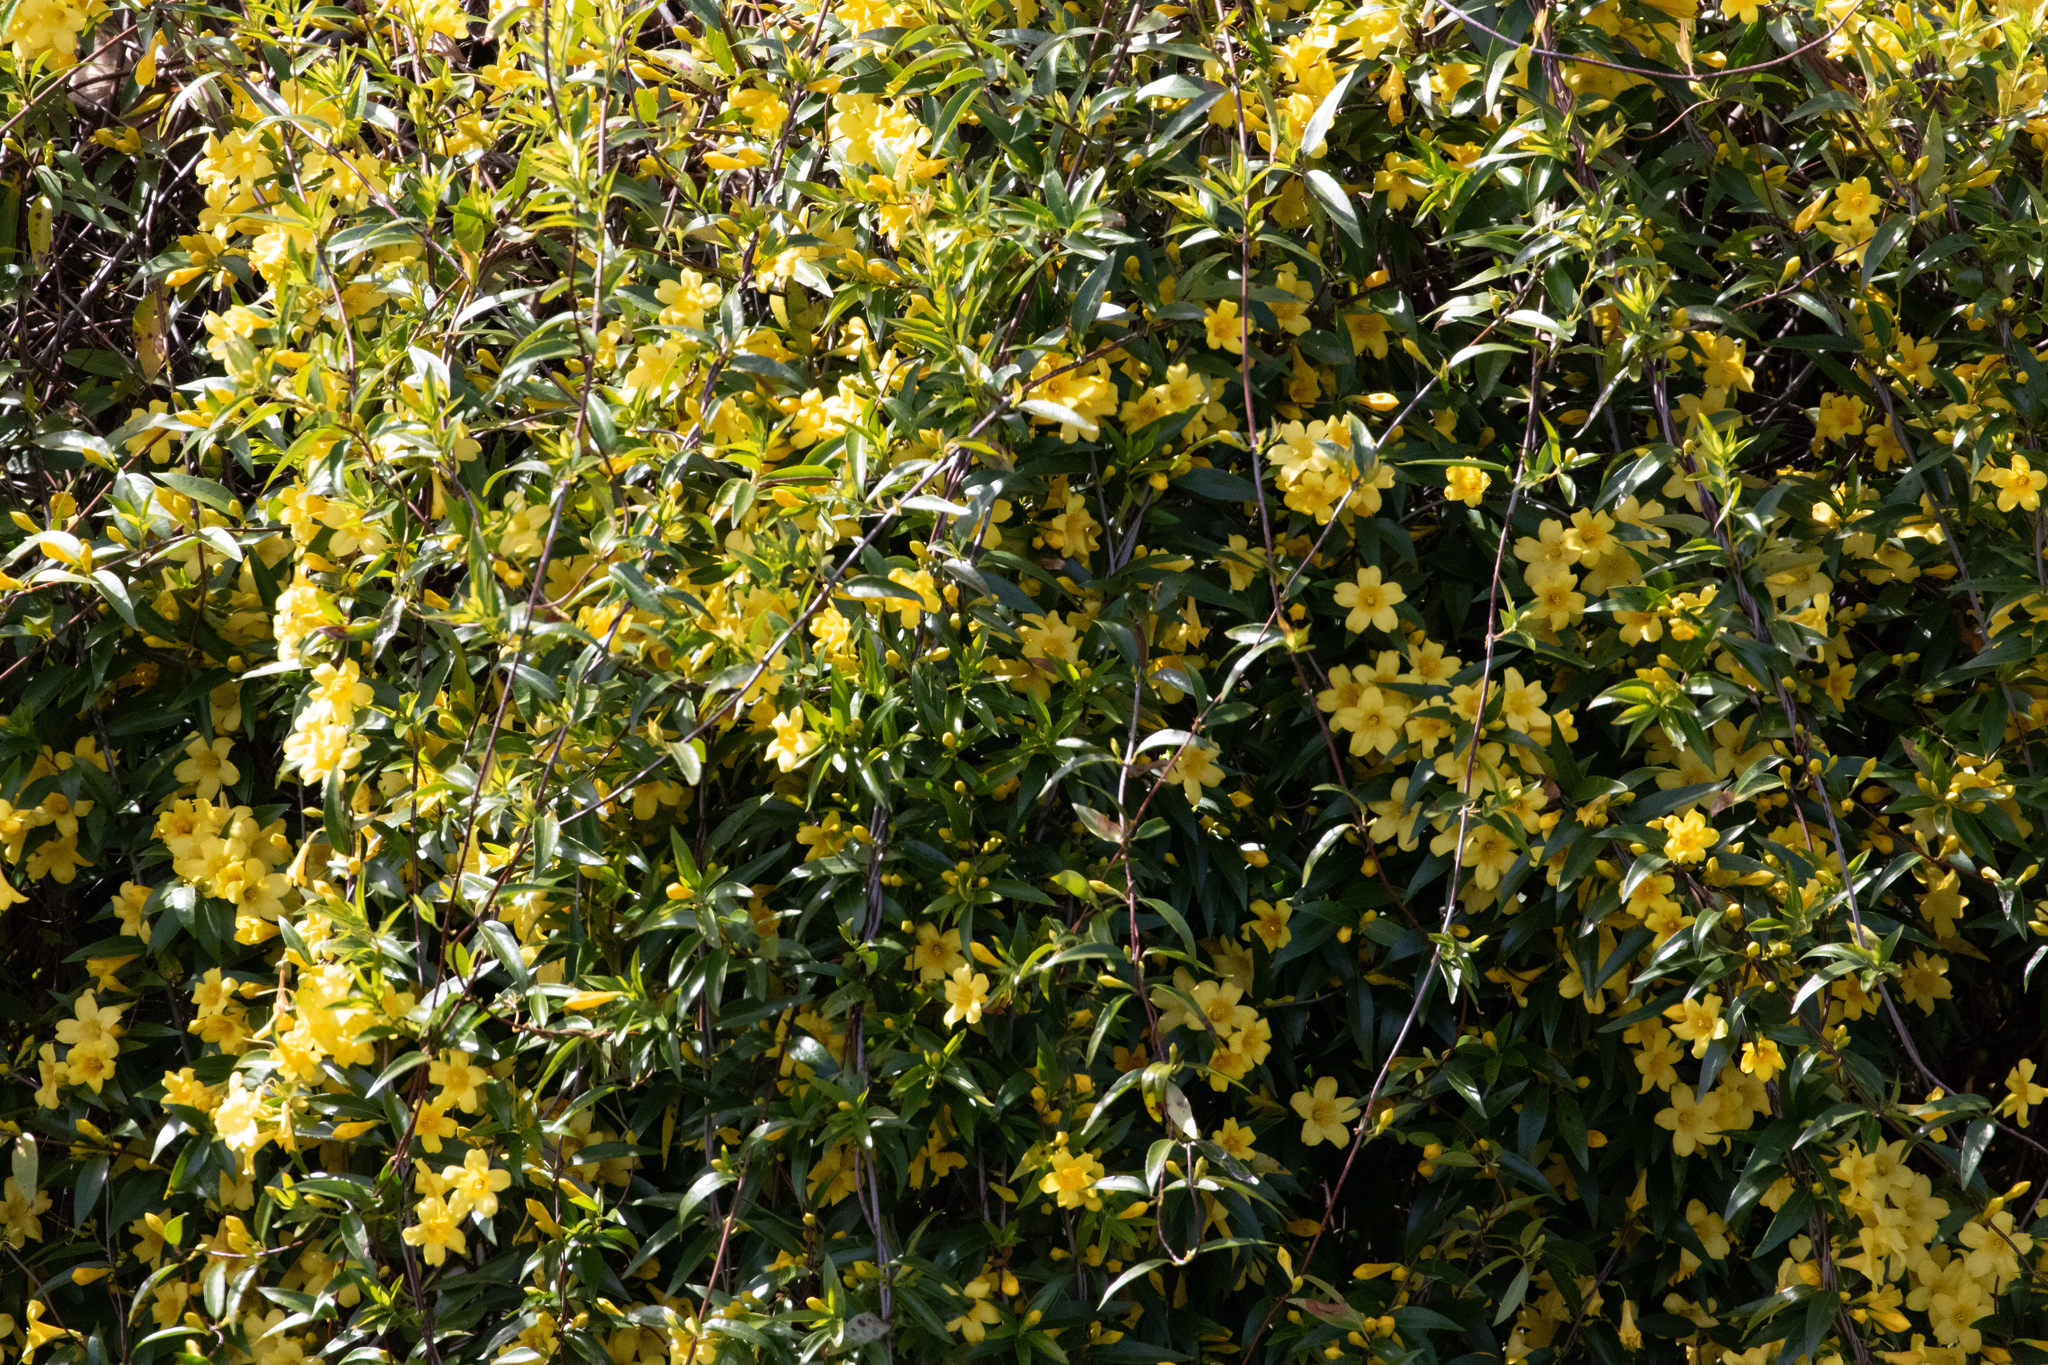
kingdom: Plantae
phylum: Tracheophyta
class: Magnoliopsida
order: Gentianales
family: Gelsemiaceae
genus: Gelsemium
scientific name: Gelsemium sempervirens
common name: Carolina-jasmine
